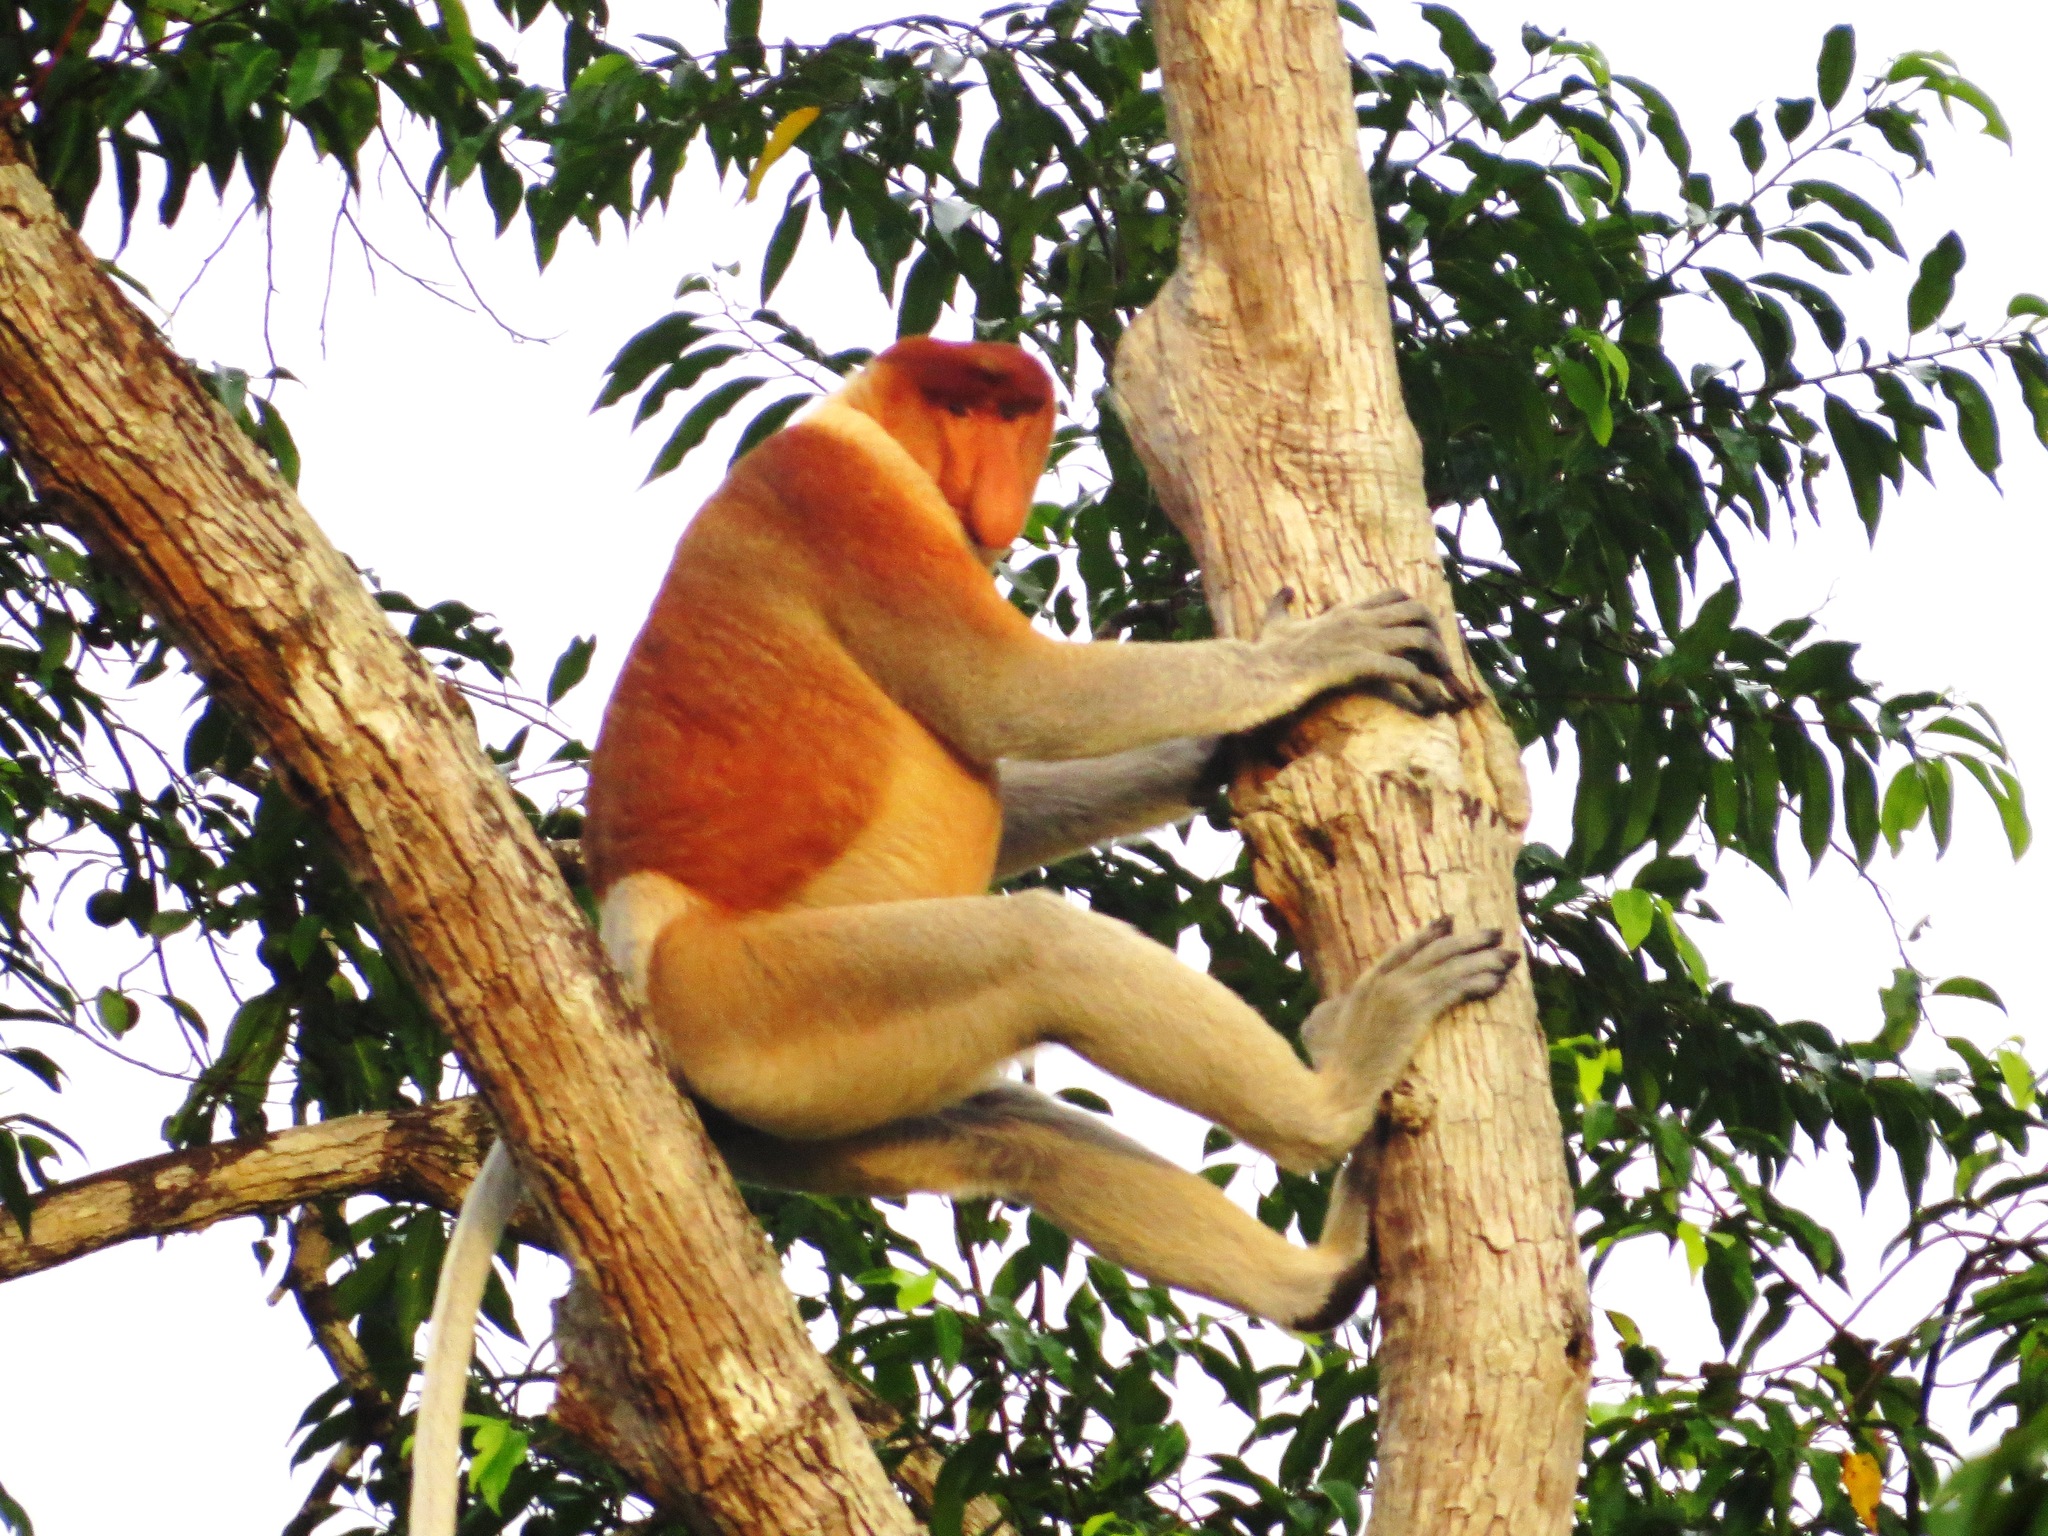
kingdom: Animalia
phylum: Chordata
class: Mammalia
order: Primates
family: Cercopithecidae
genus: Nasalis
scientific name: Nasalis larvatus
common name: Proboscis monkey
